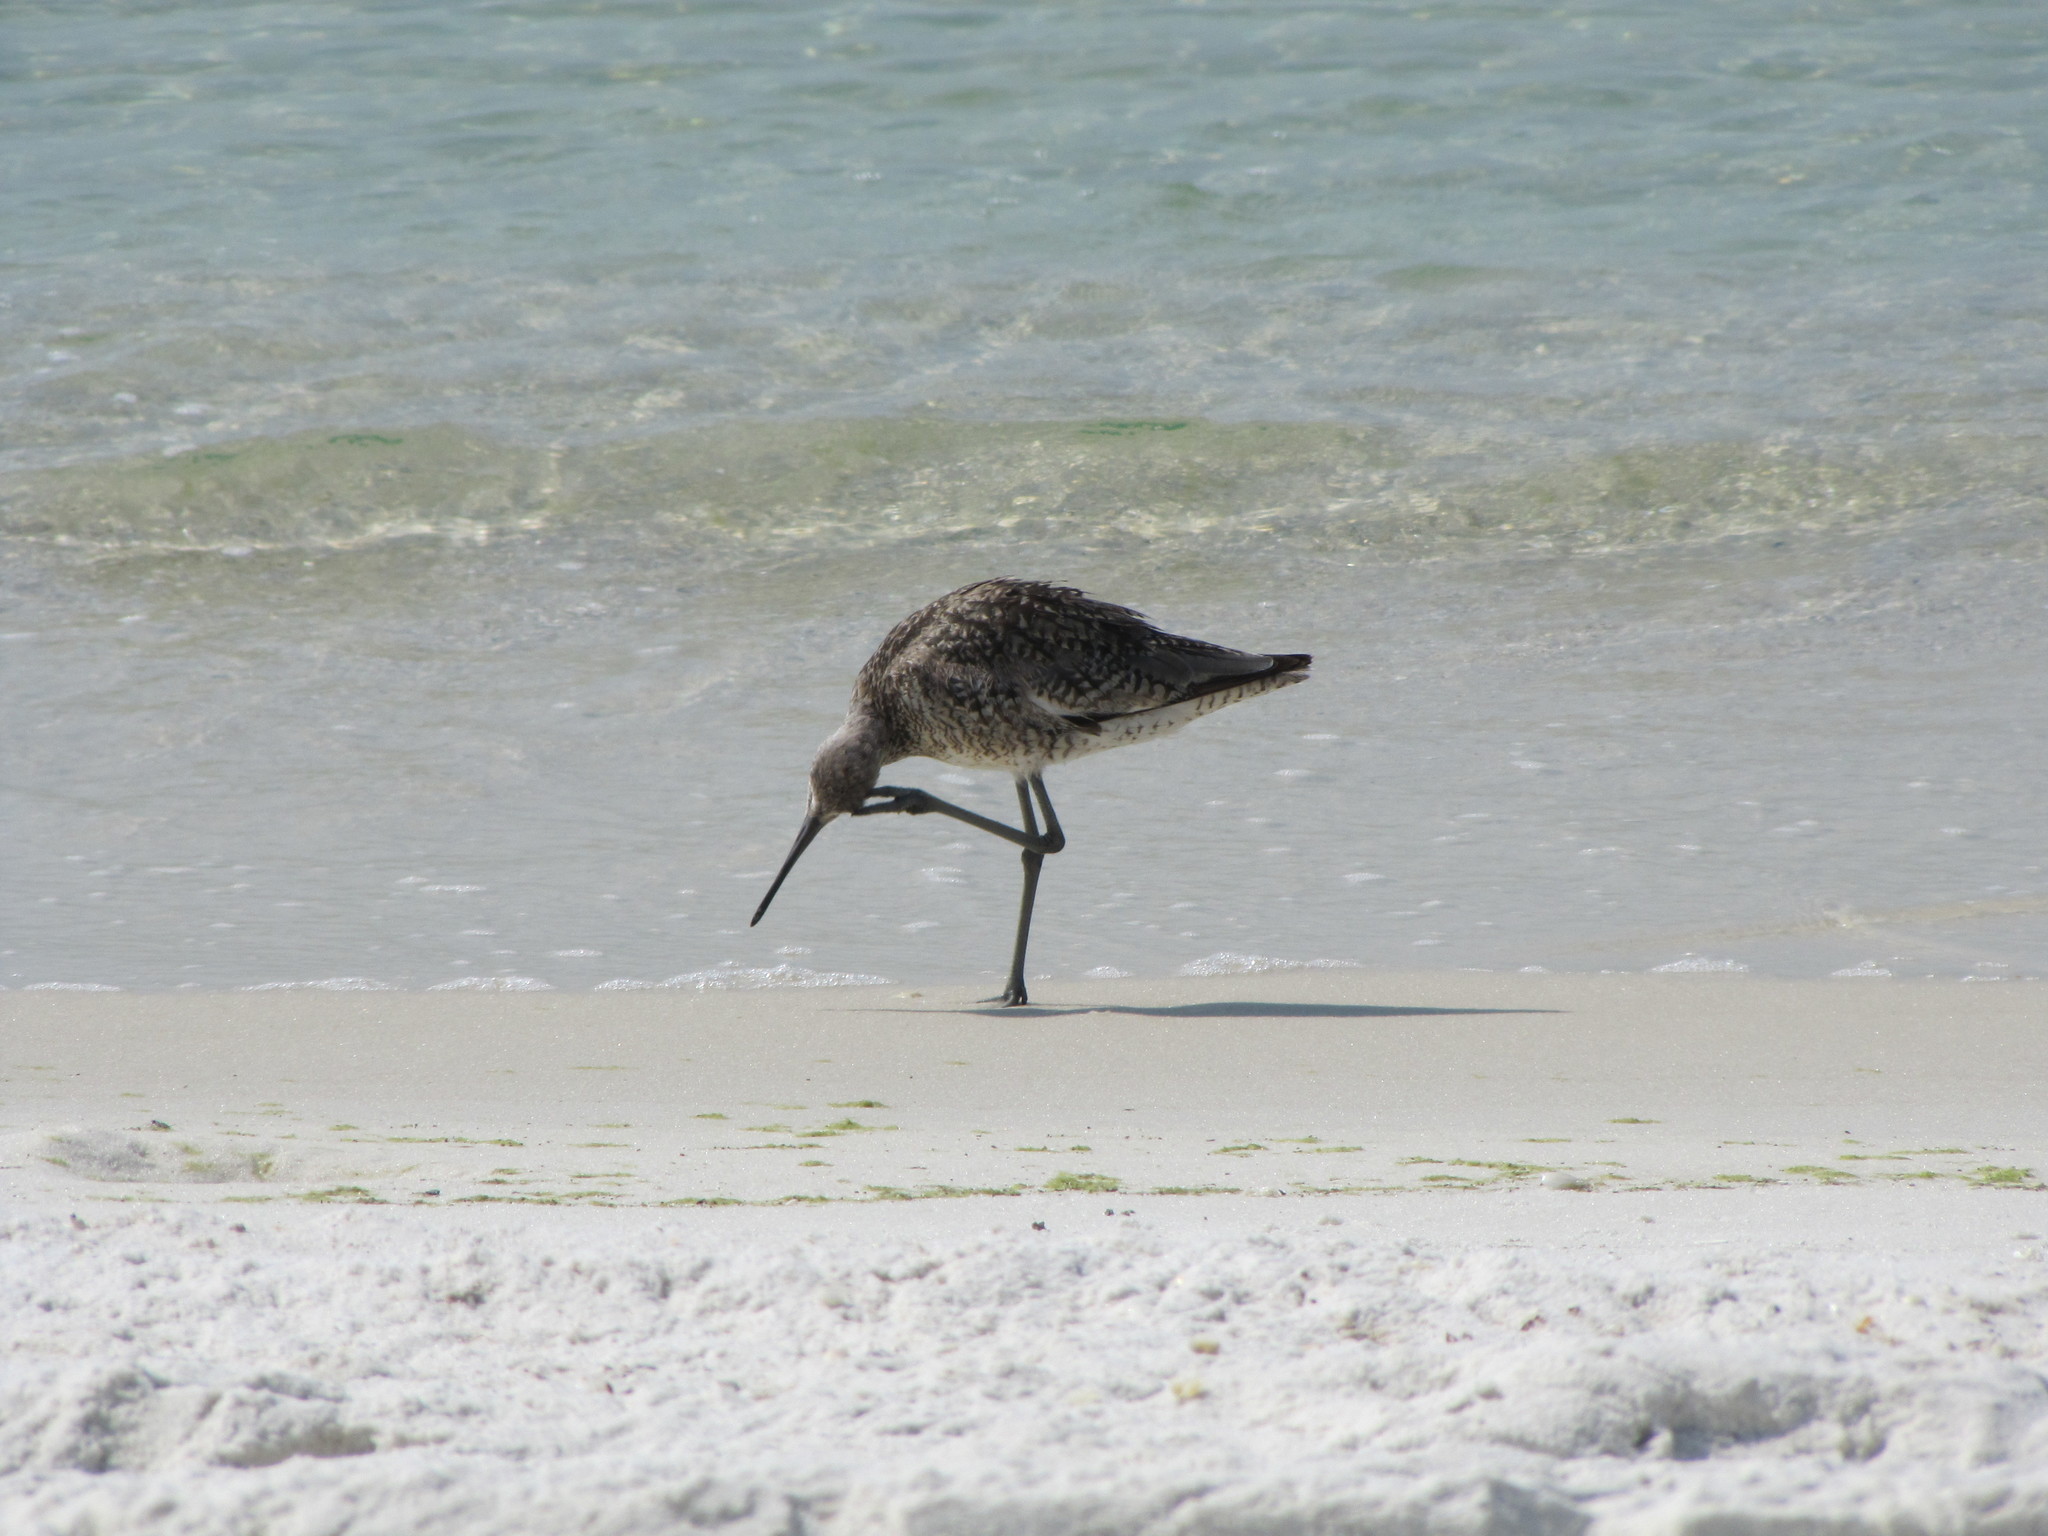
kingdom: Animalia
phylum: Chordata
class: Aves
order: Charadriiformes
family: Scolopacidae
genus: Tringa
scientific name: Tringa semipalmata
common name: Willet
